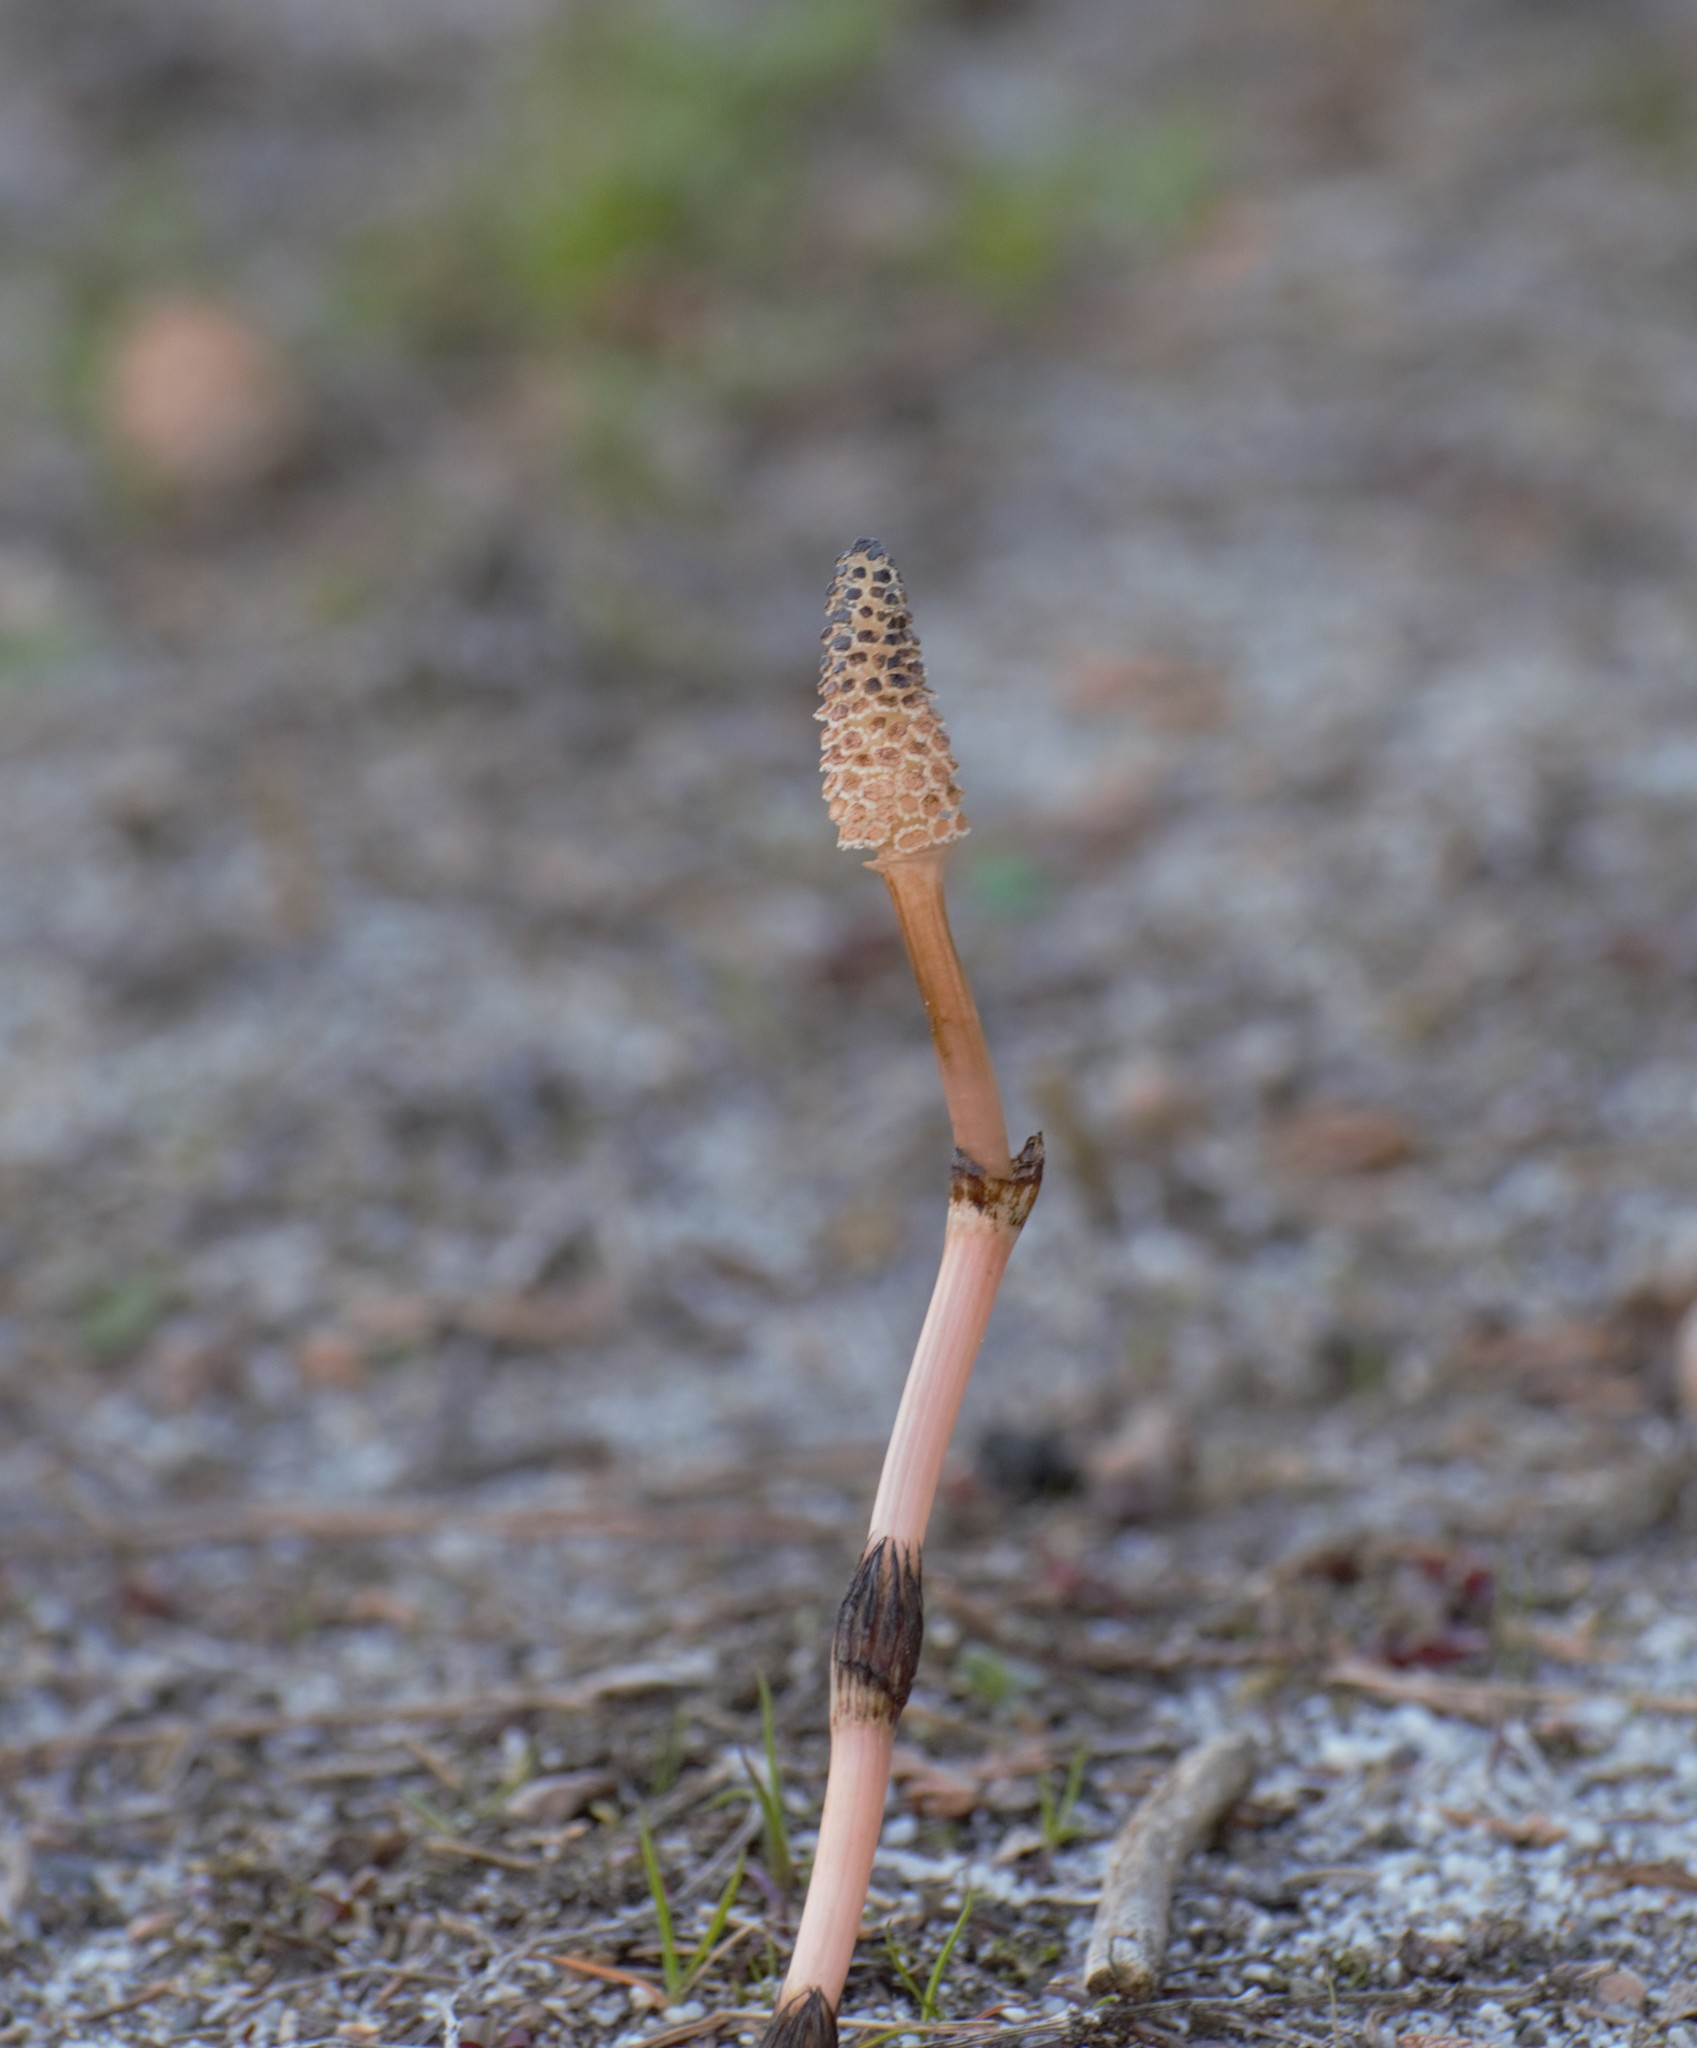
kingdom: Plantae
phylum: Tracheophyta
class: Polypodiopsida
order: Equisetales
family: Equisetaceae
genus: Equisetum
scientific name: Equisetum arvense
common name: Field horsetail
